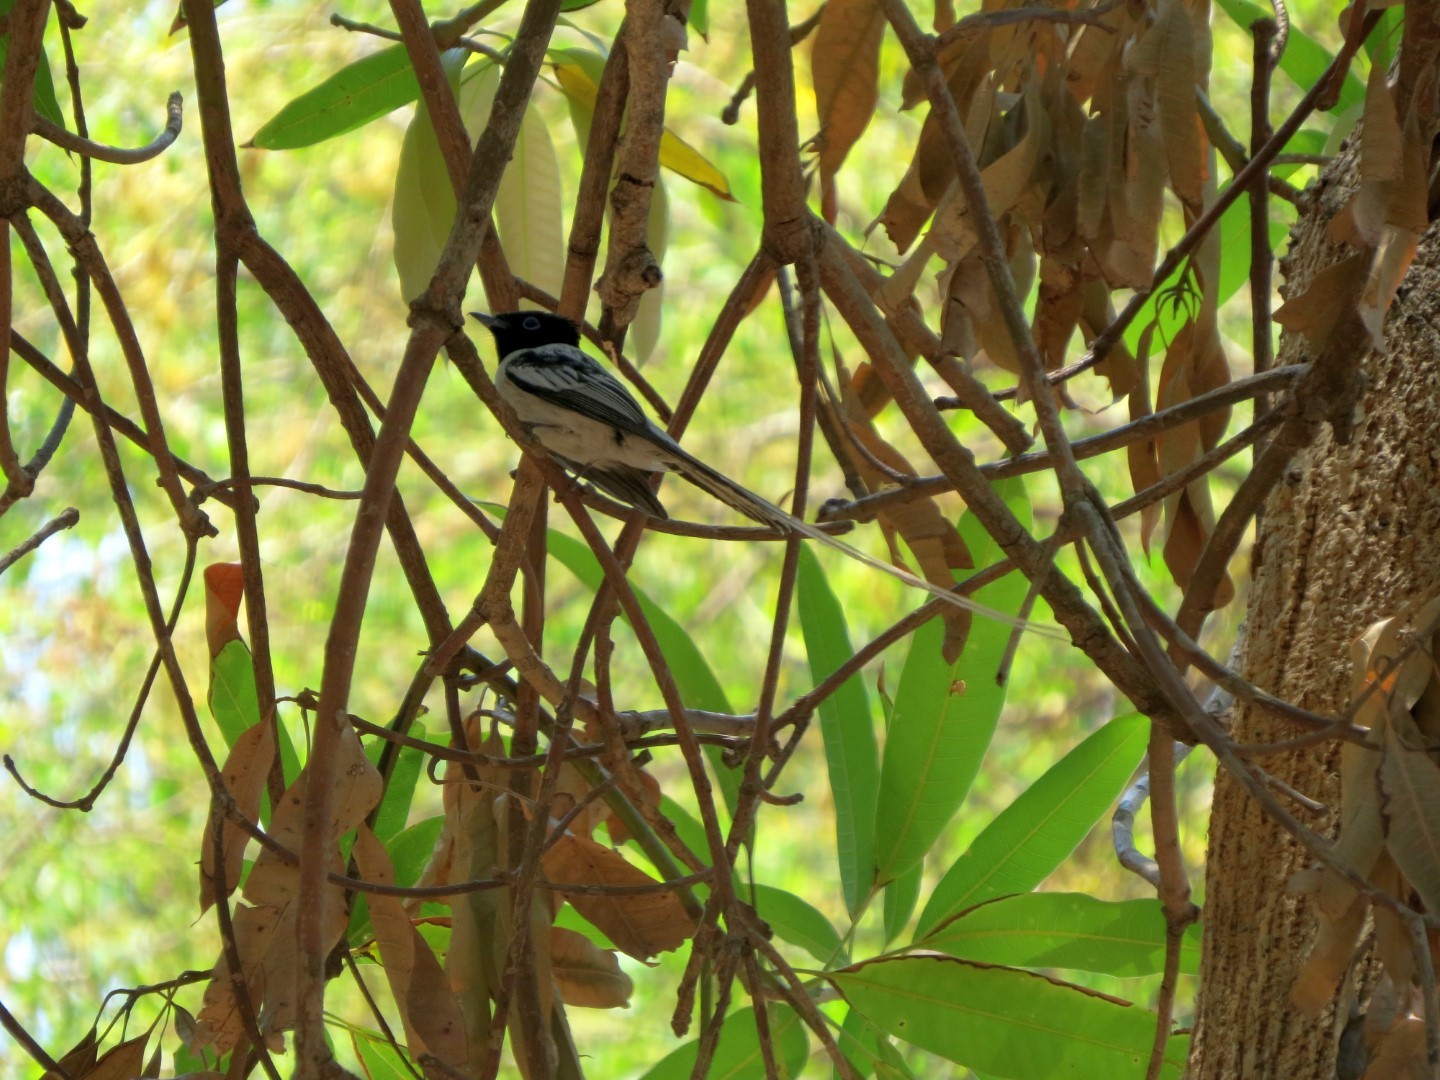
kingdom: Animalia
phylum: Chordata
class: Aves
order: Passeriformes
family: Monarchidae
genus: Terpsiphone
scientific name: Terpsiphone mutata
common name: Malagasy paradise flycatcher
